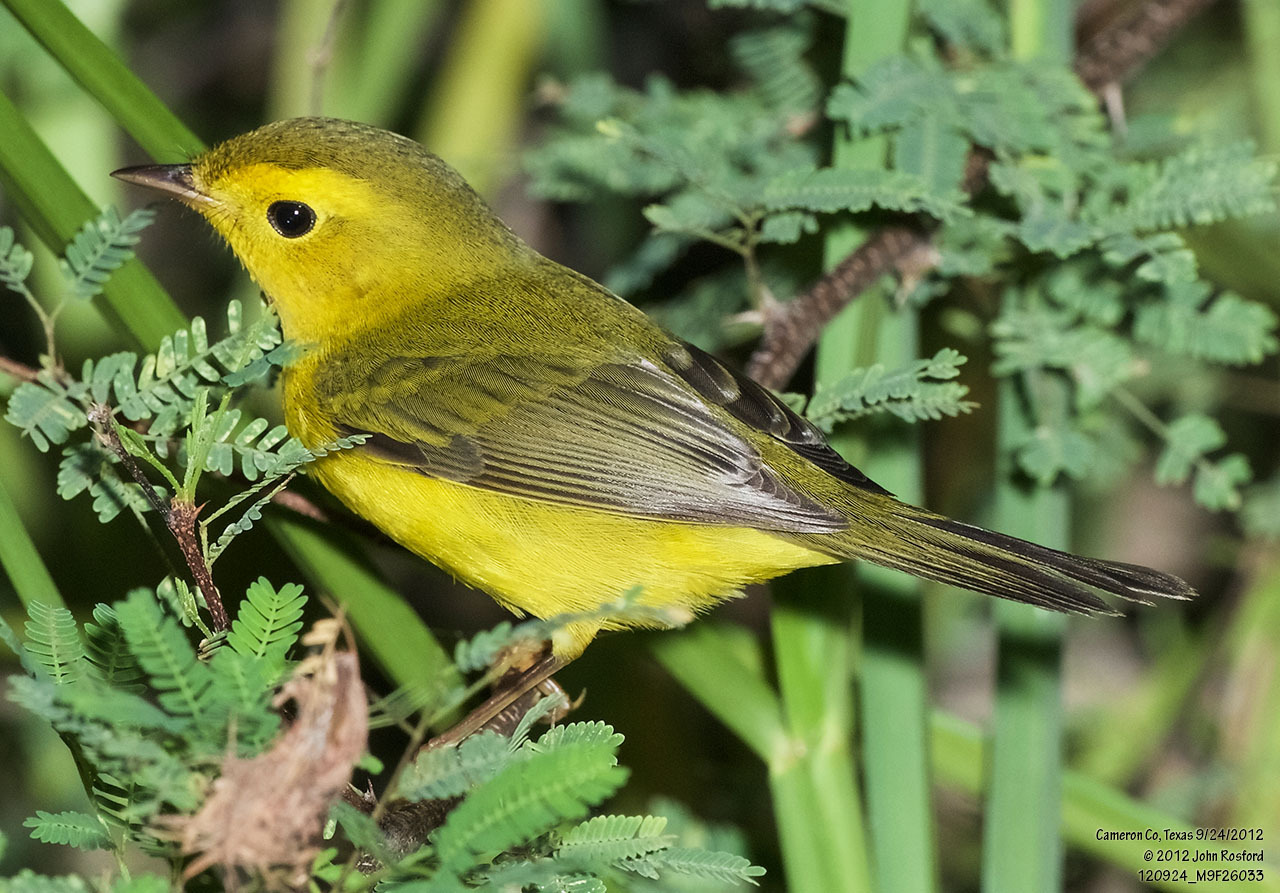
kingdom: Animalia
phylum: Chordata
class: Aves
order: Passeriformes
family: Parulidae
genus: Cardellina
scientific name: Cardellina pusilla
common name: Wilson's warbler
